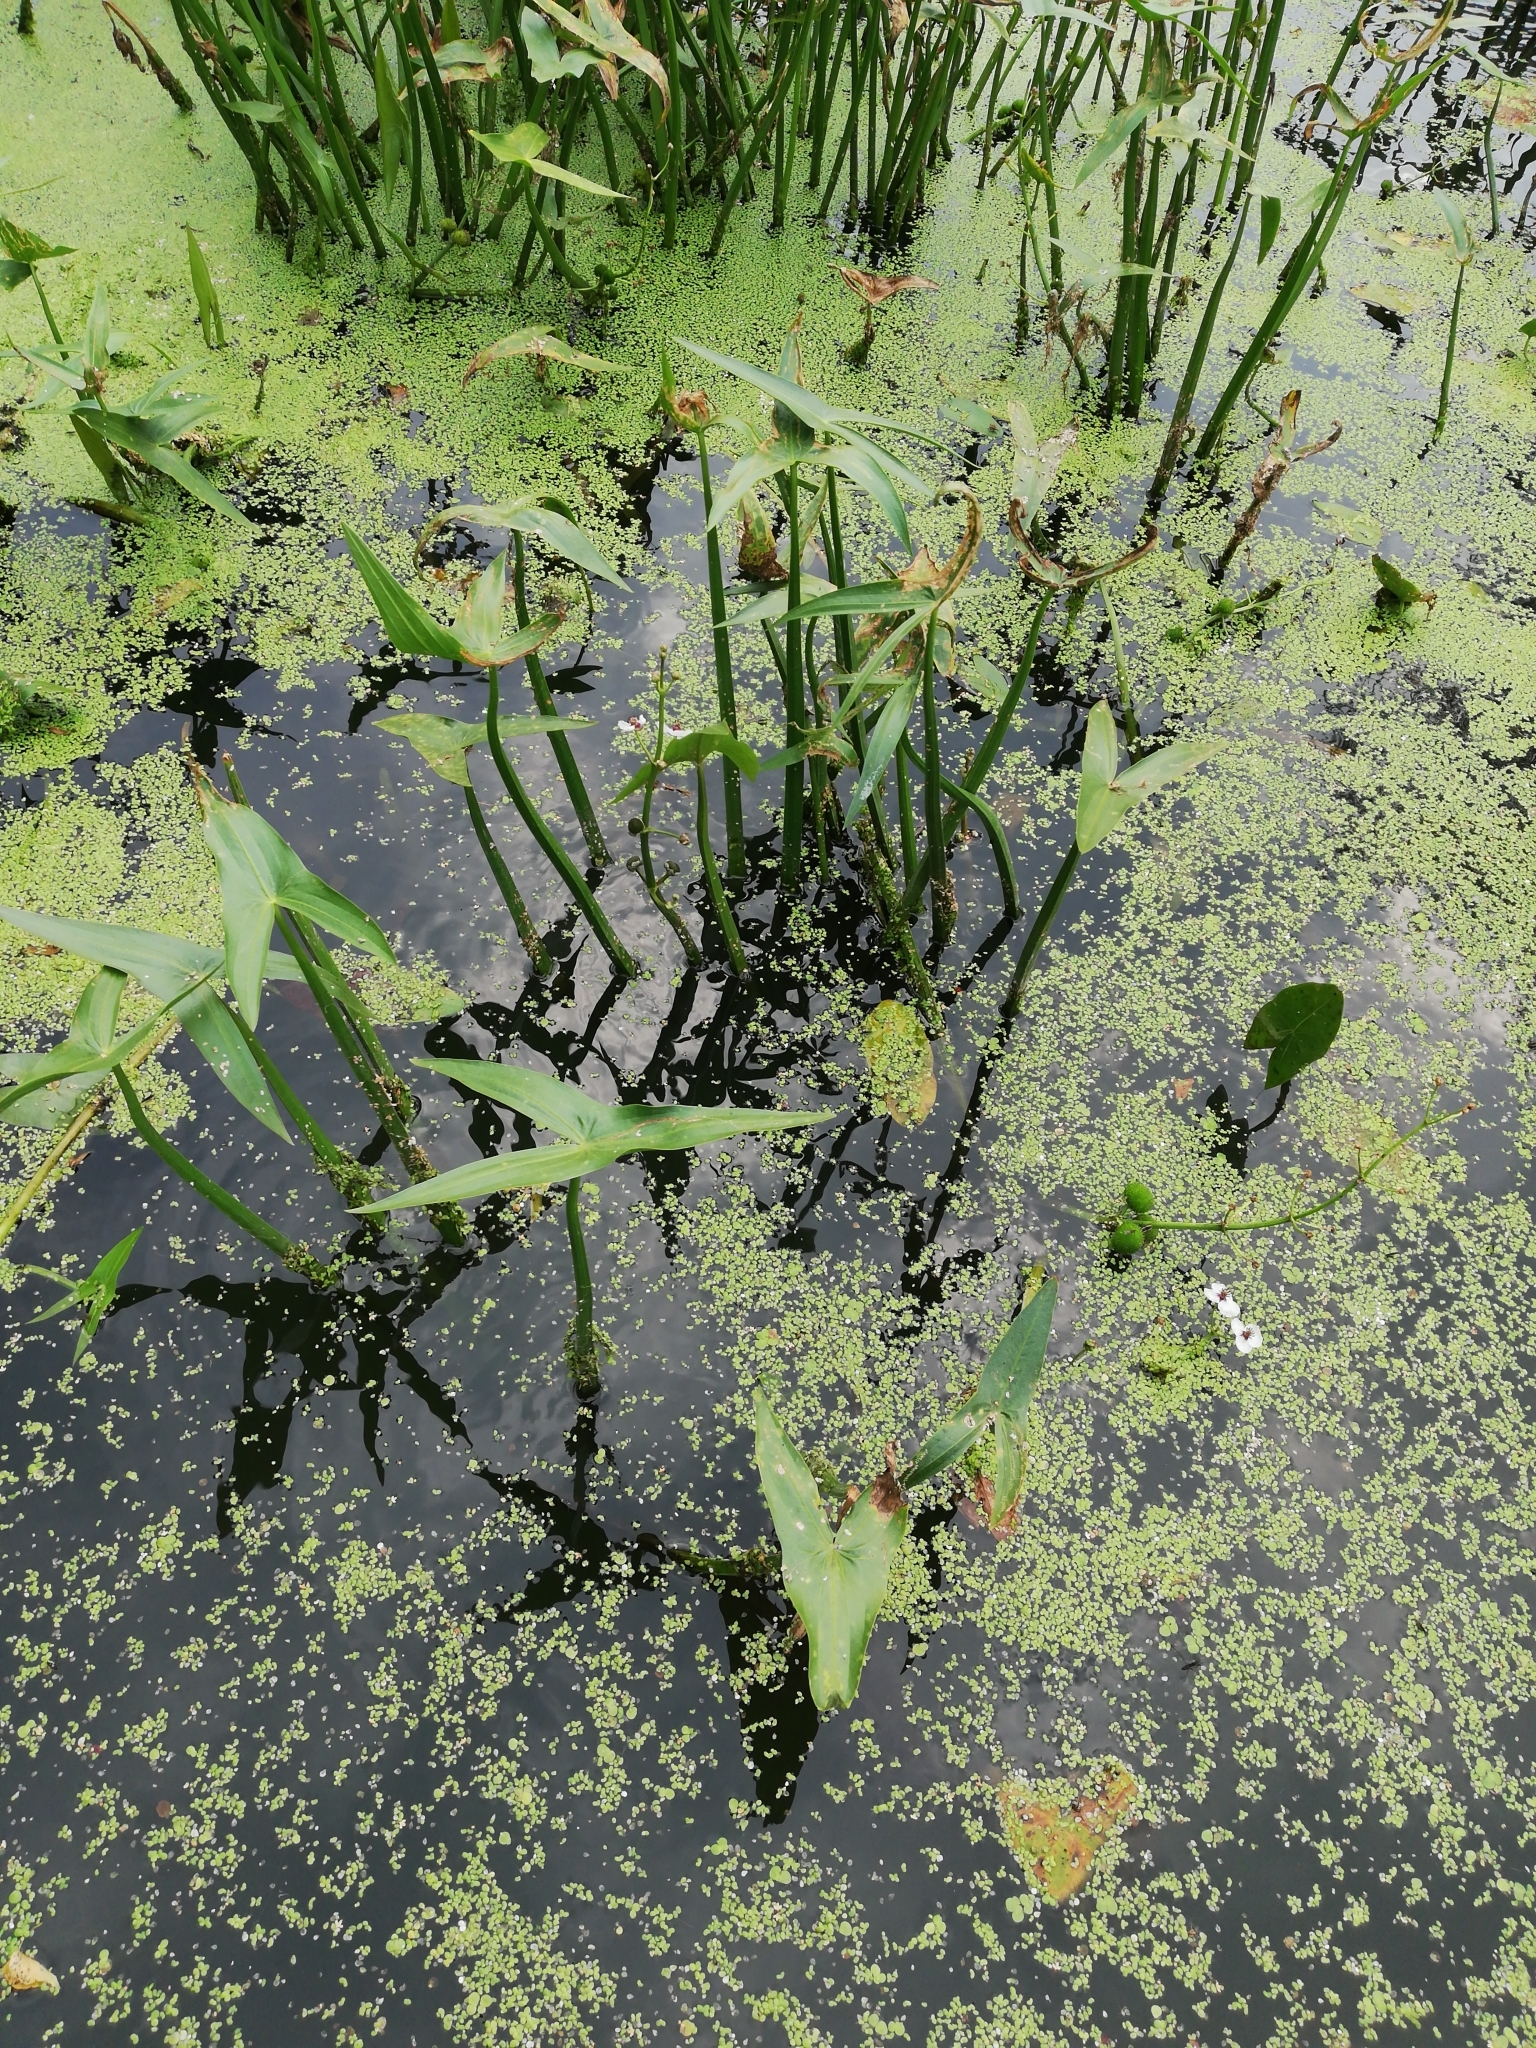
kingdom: Plantae
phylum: Tracheophyta
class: Liliopsida
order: Alismatales
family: Alismataceae
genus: Sagittaria
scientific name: Sagittaria sagittifolia
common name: Arrowhead
